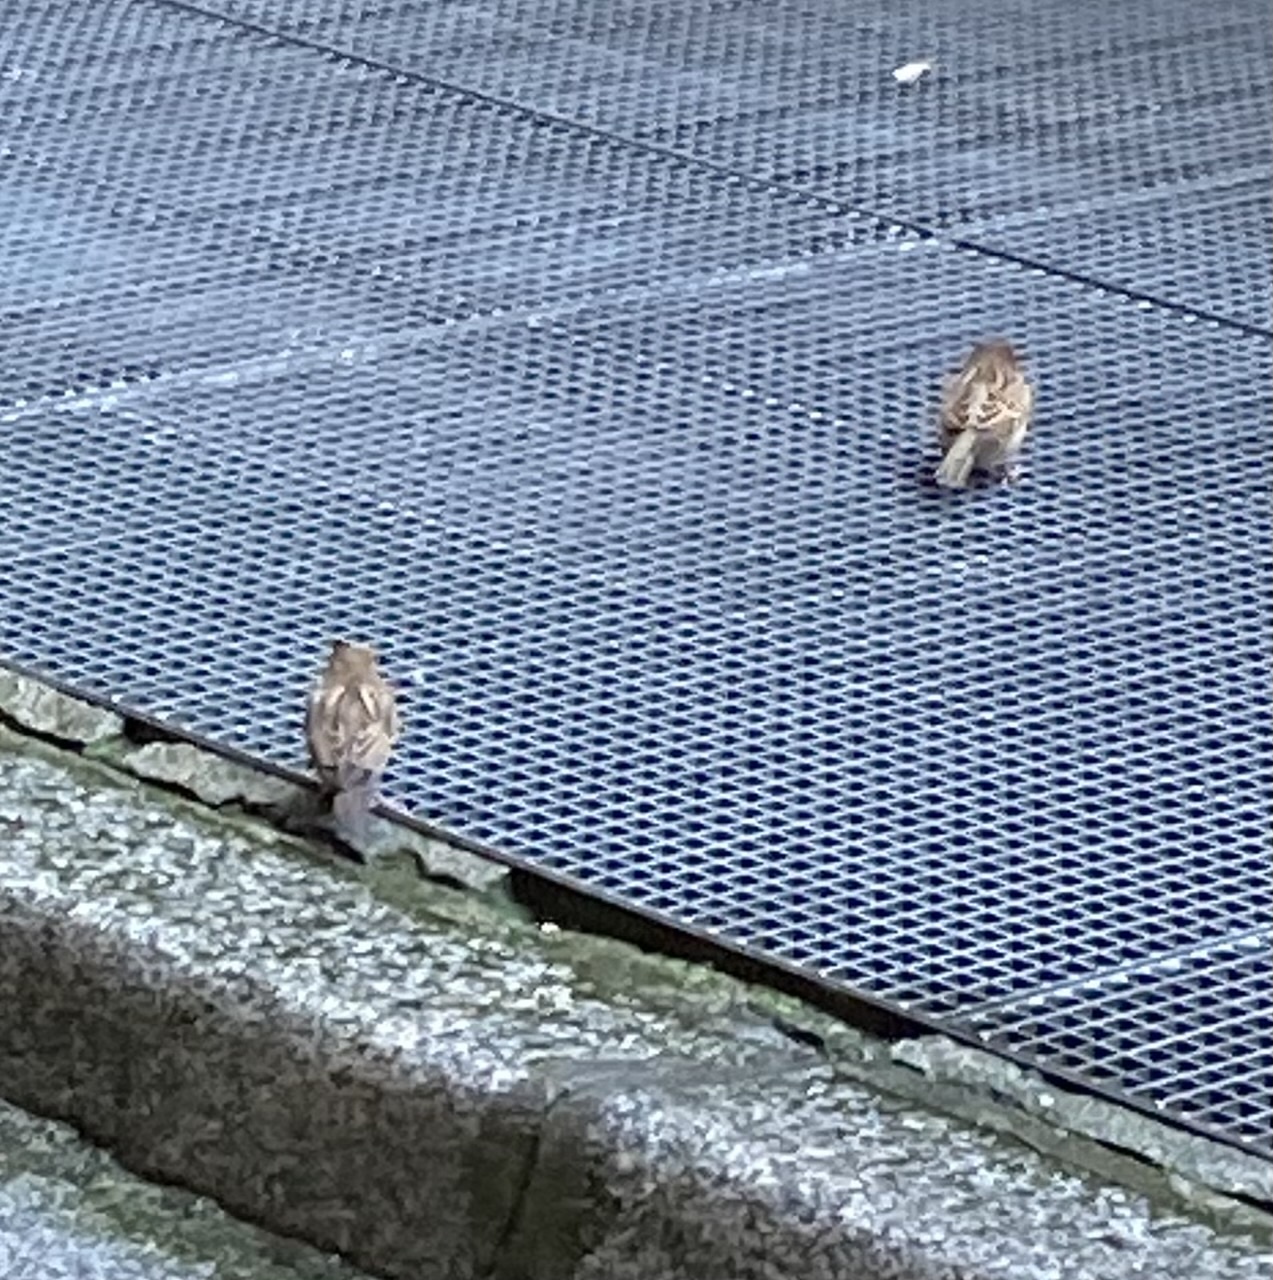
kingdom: Animalia
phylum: Chordata
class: Aves
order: Passeriformes
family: Passeridae
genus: Passer
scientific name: Passer domesticus
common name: House sparrow
